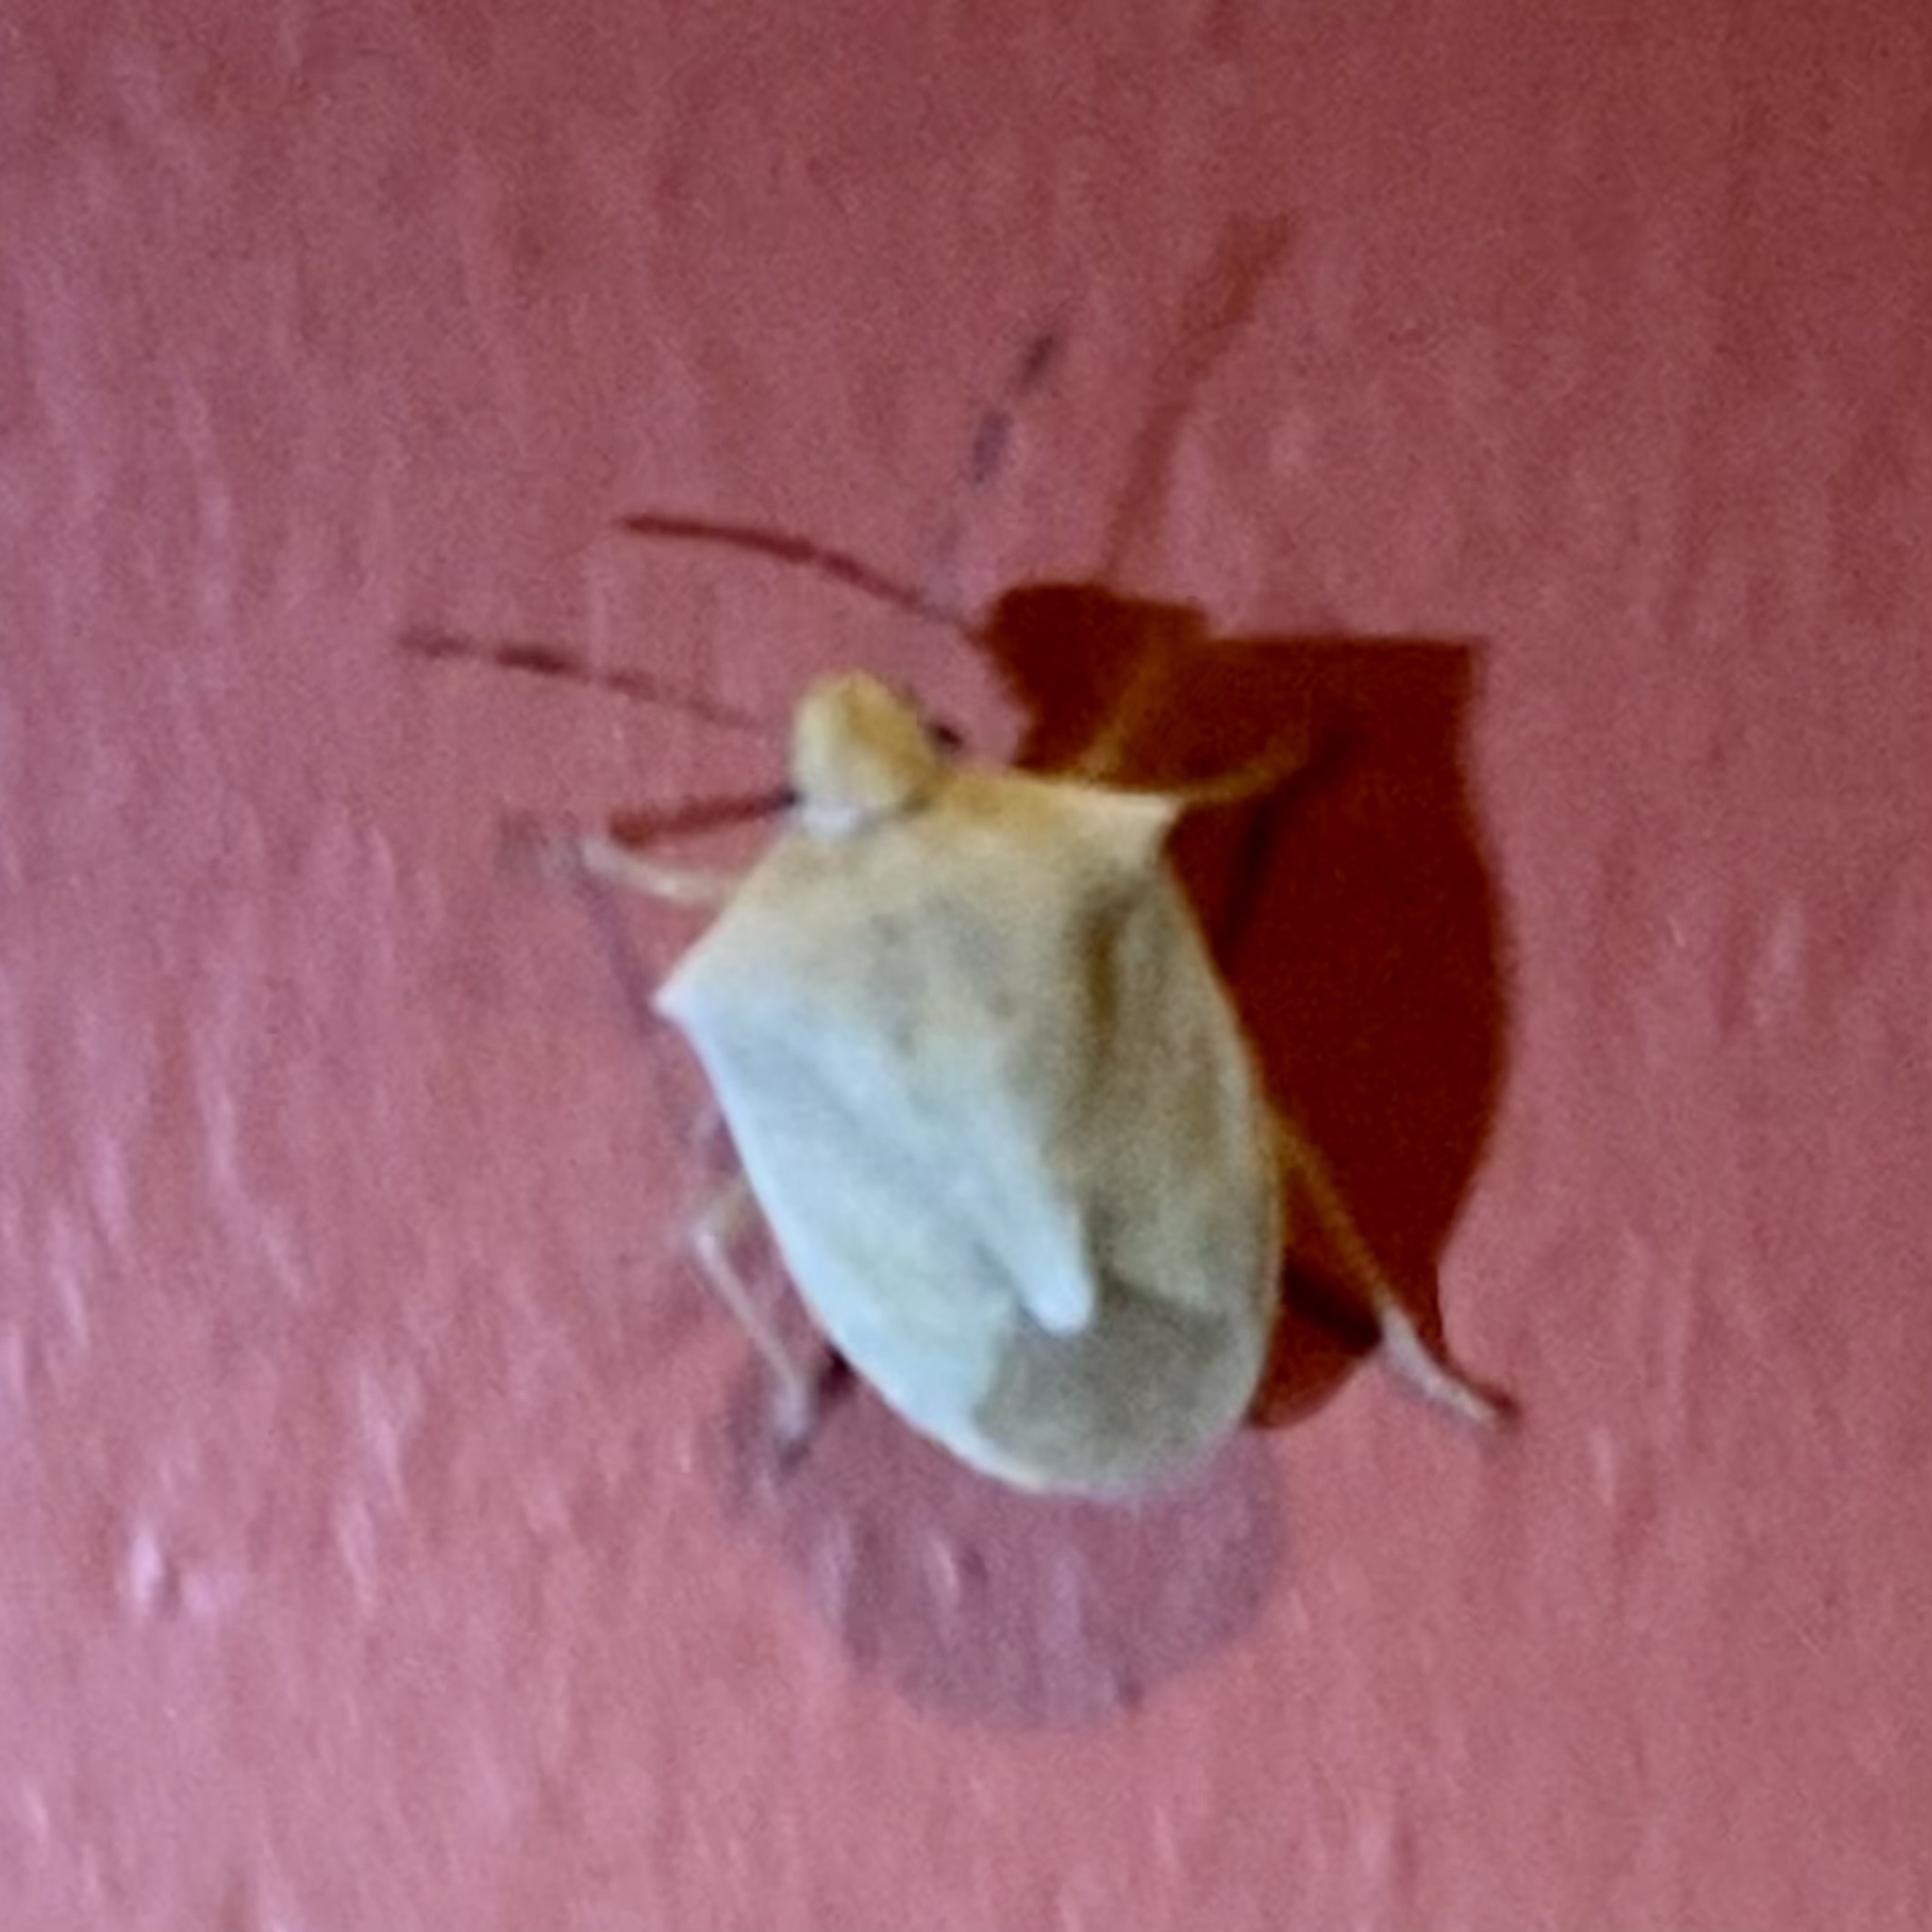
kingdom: Animalia
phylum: Arthropoda
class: Insecta
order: Hemiptera
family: Pentatomidae
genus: Thyanta
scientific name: Thyanta accerra
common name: Stink bug
